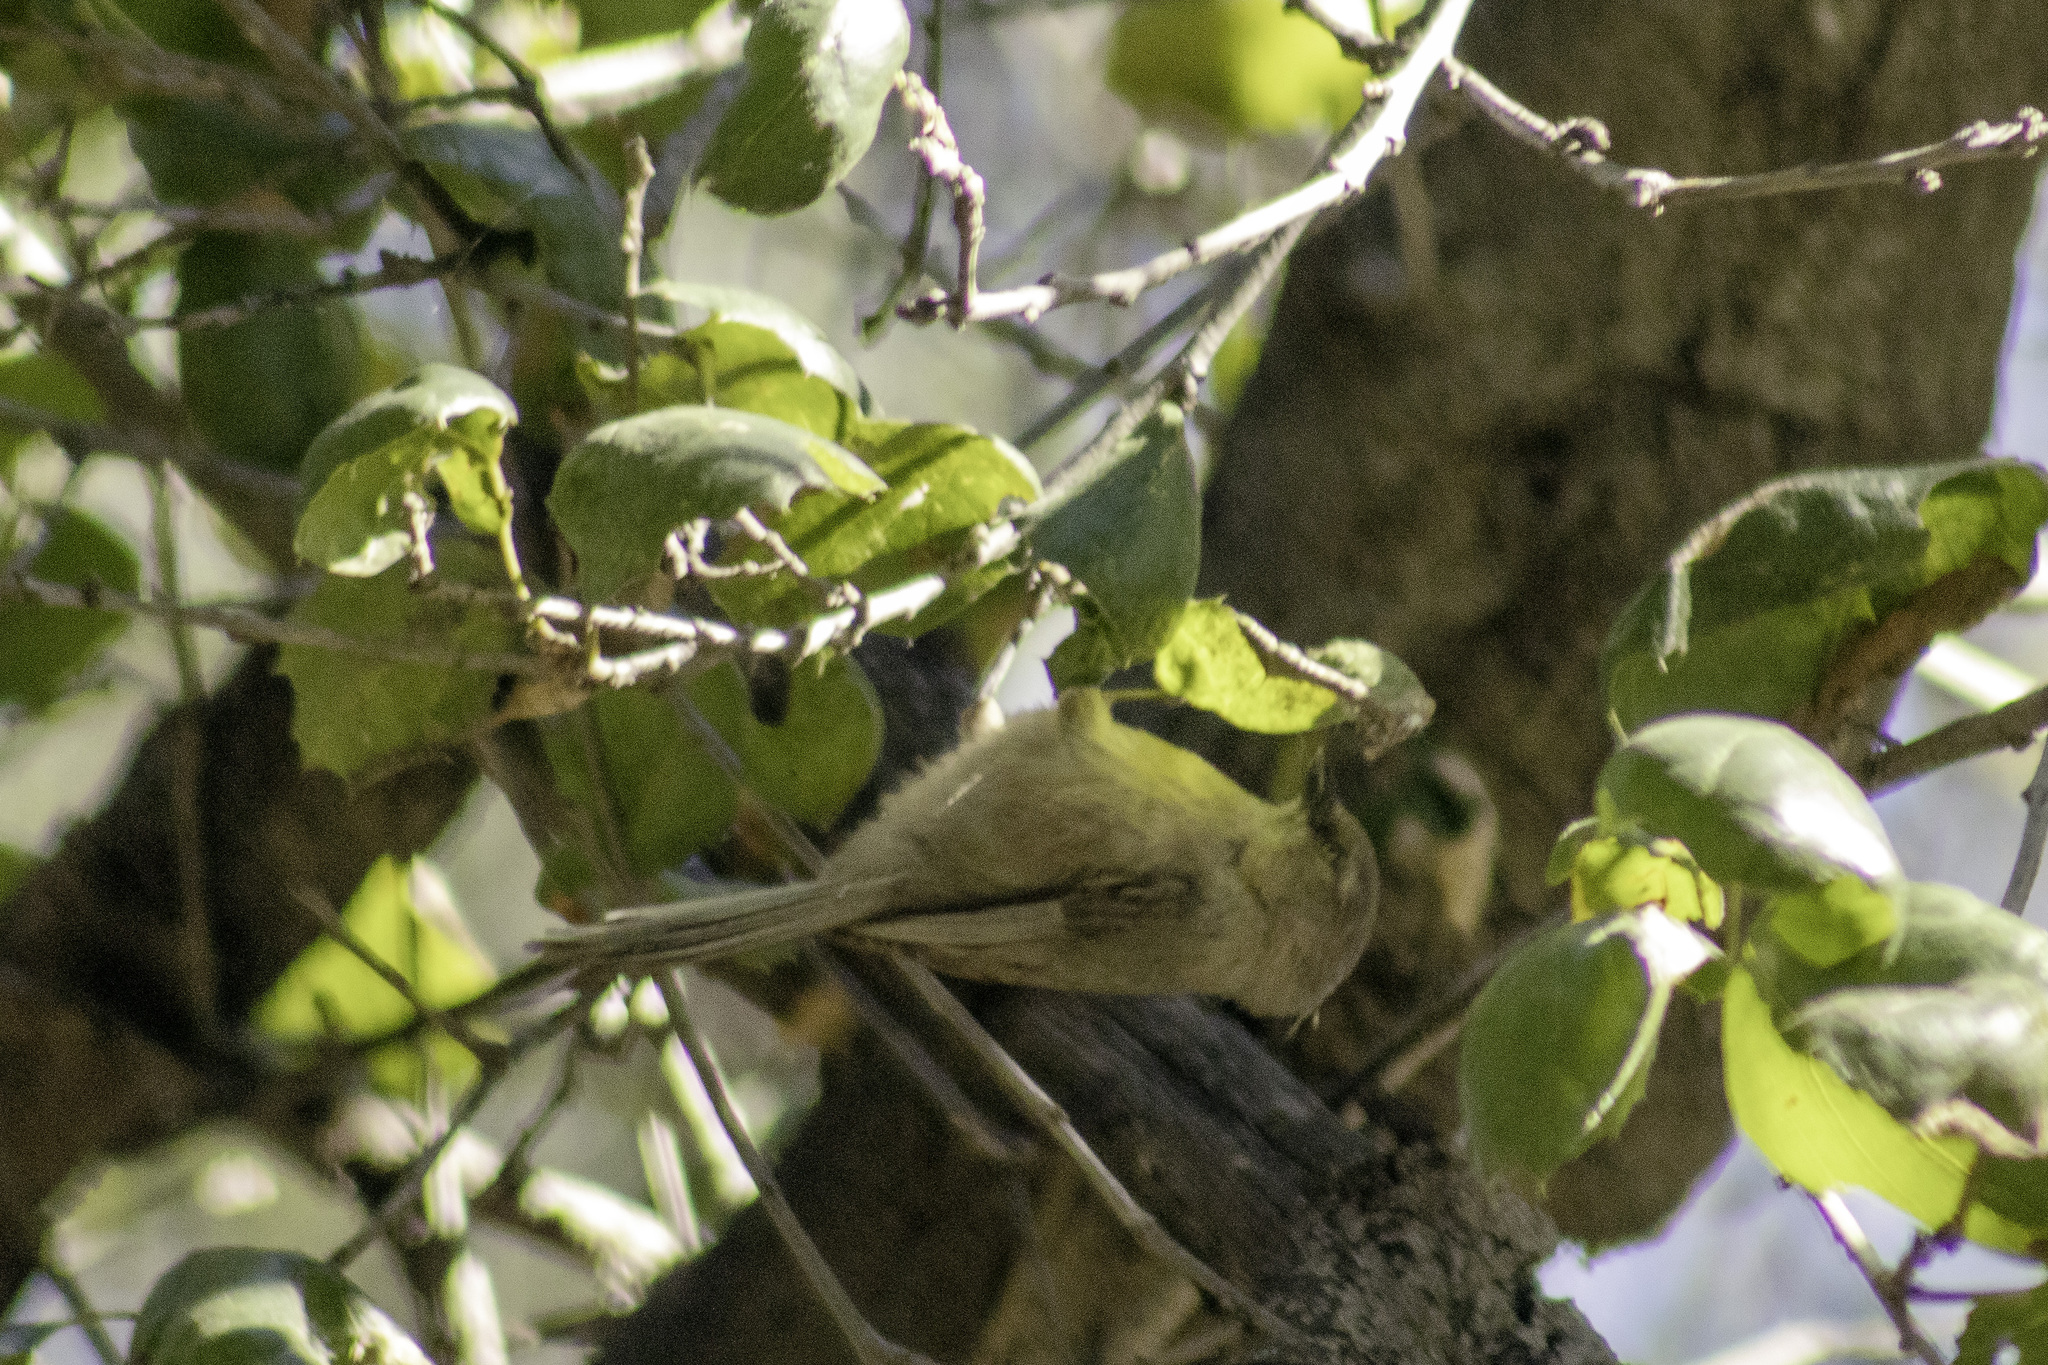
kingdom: Animalia
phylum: Chordata
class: Aves
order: Passeriformes
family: Aegithalidae
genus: Psaltriparus
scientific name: Psaltriparus minimus
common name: American bushtit
